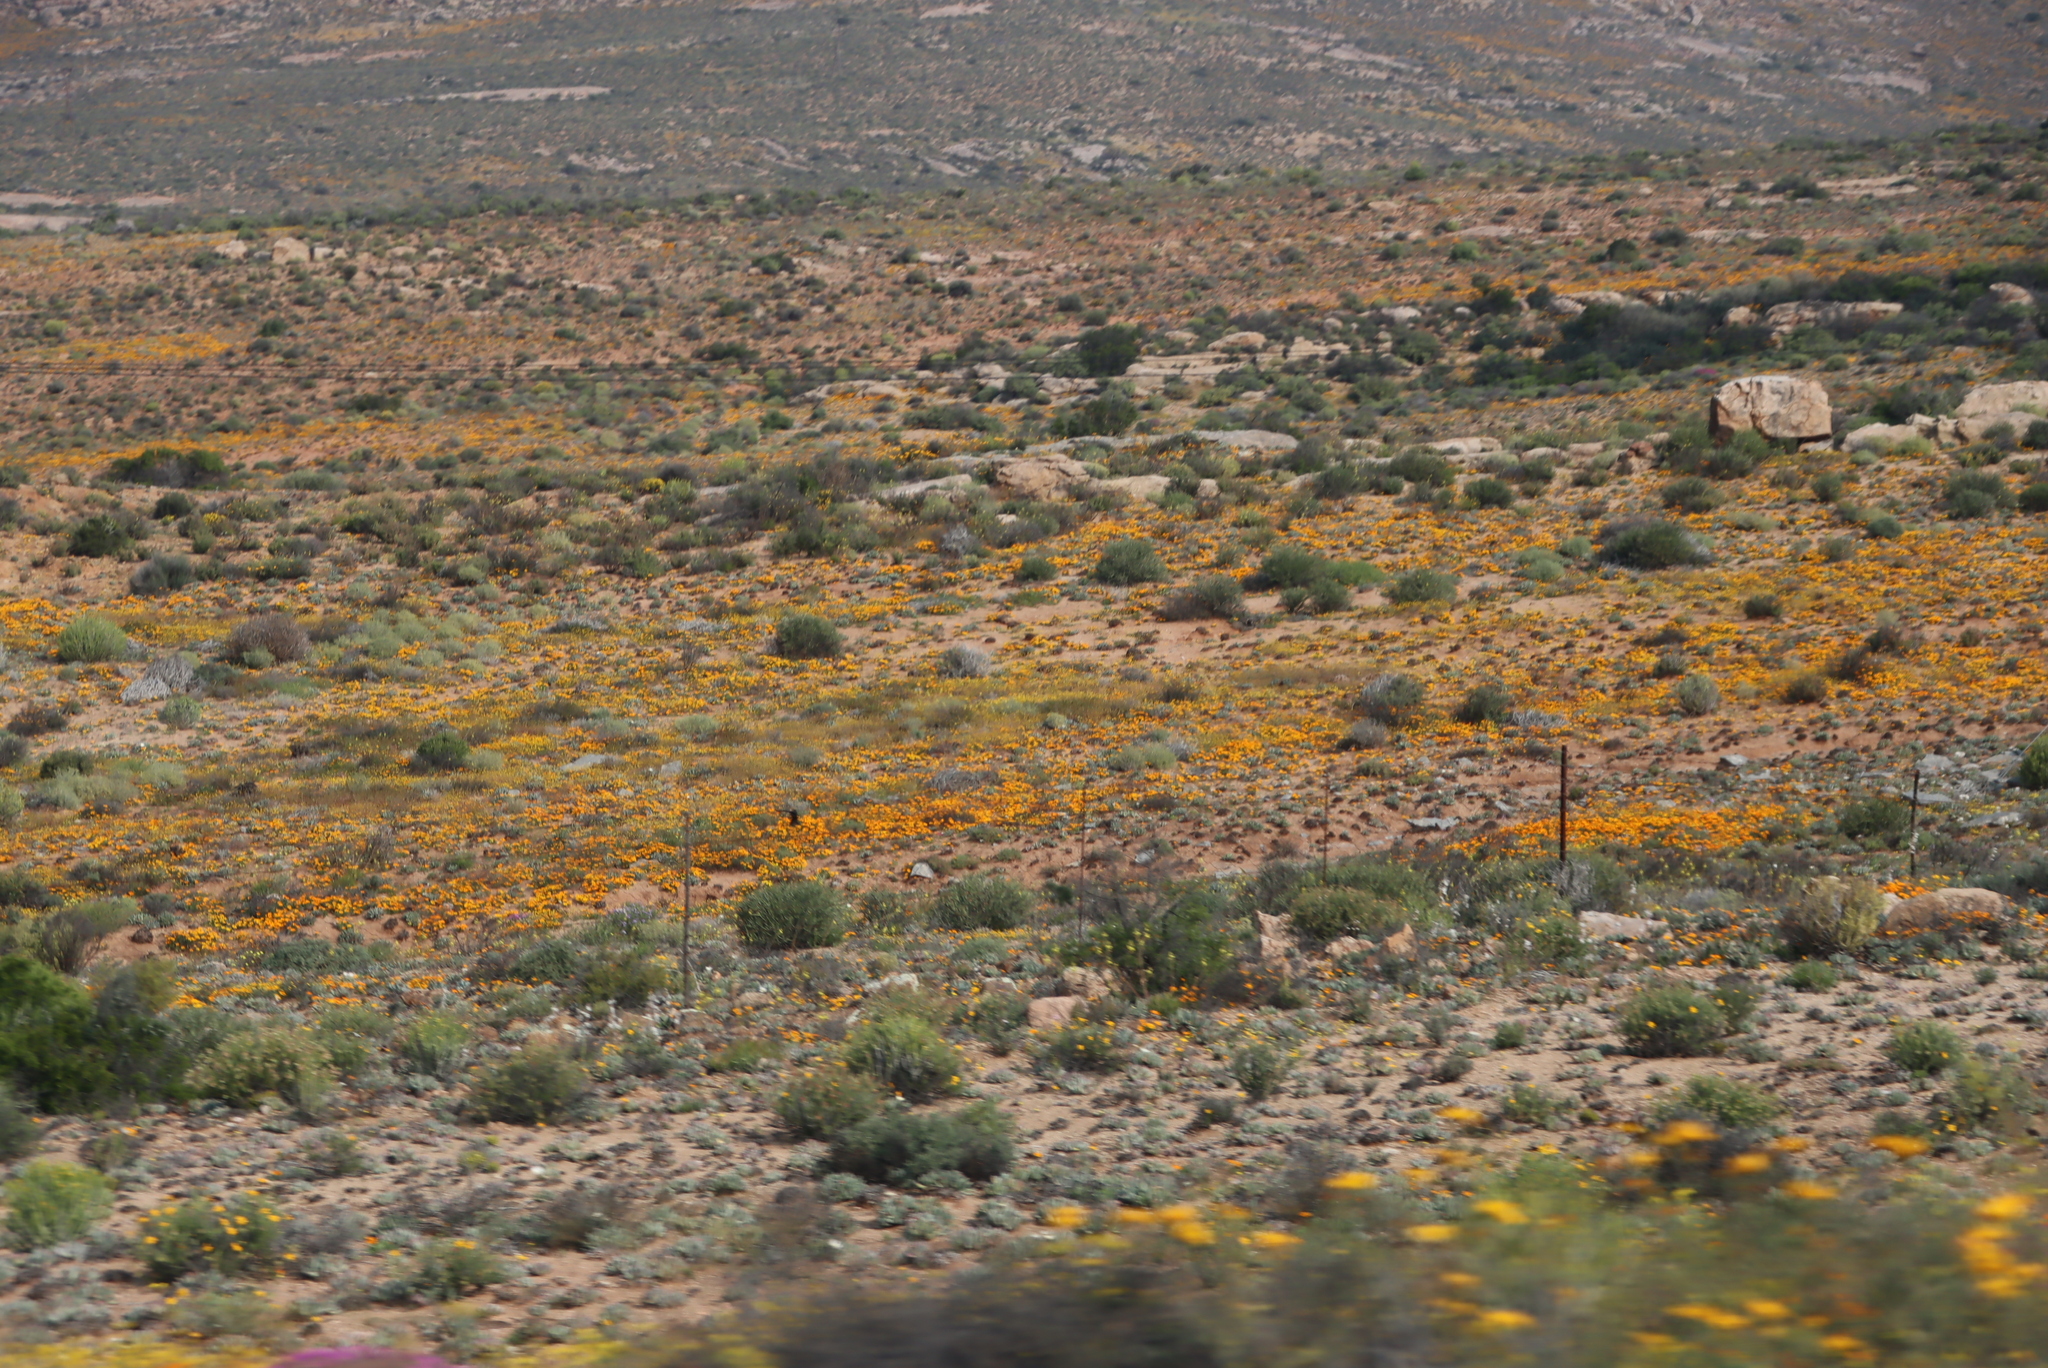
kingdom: Plantae
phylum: Tracheophyta
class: Magnoliopsida
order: Asterales
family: Asteraceae
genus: Dimorphotheca
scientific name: Dimorphotheca sinuata
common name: Glandular cape marigold
